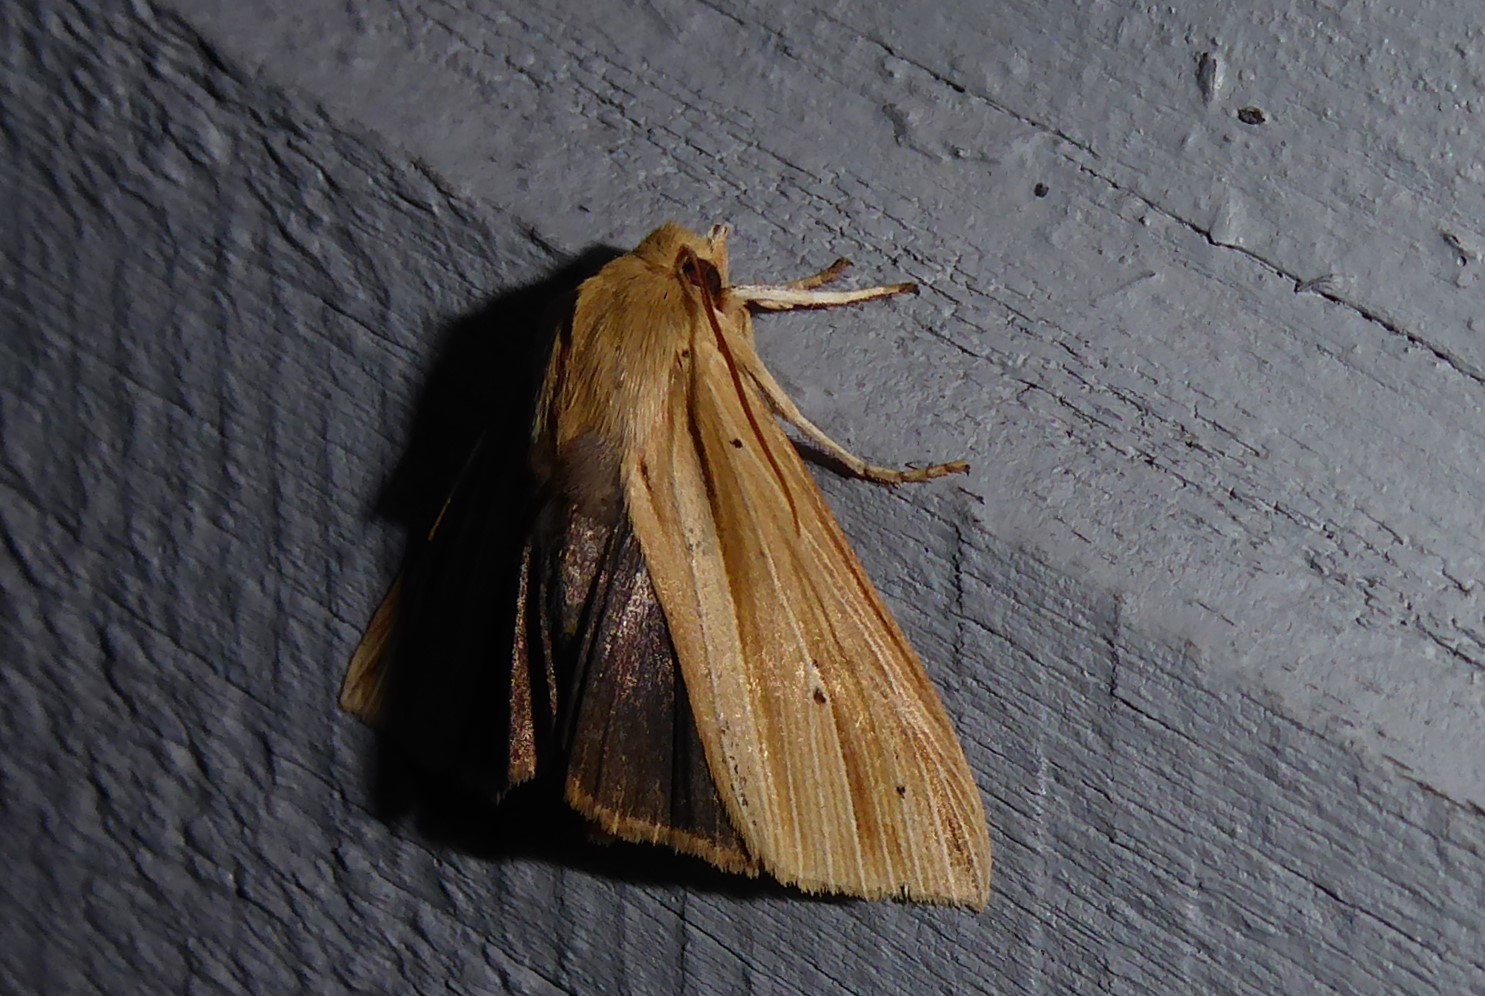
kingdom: Animalia
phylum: Arthropoda
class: Insecta
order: Lepidoptera
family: Noctuidae
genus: Ichneutica
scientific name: Ichneutica sulcana
